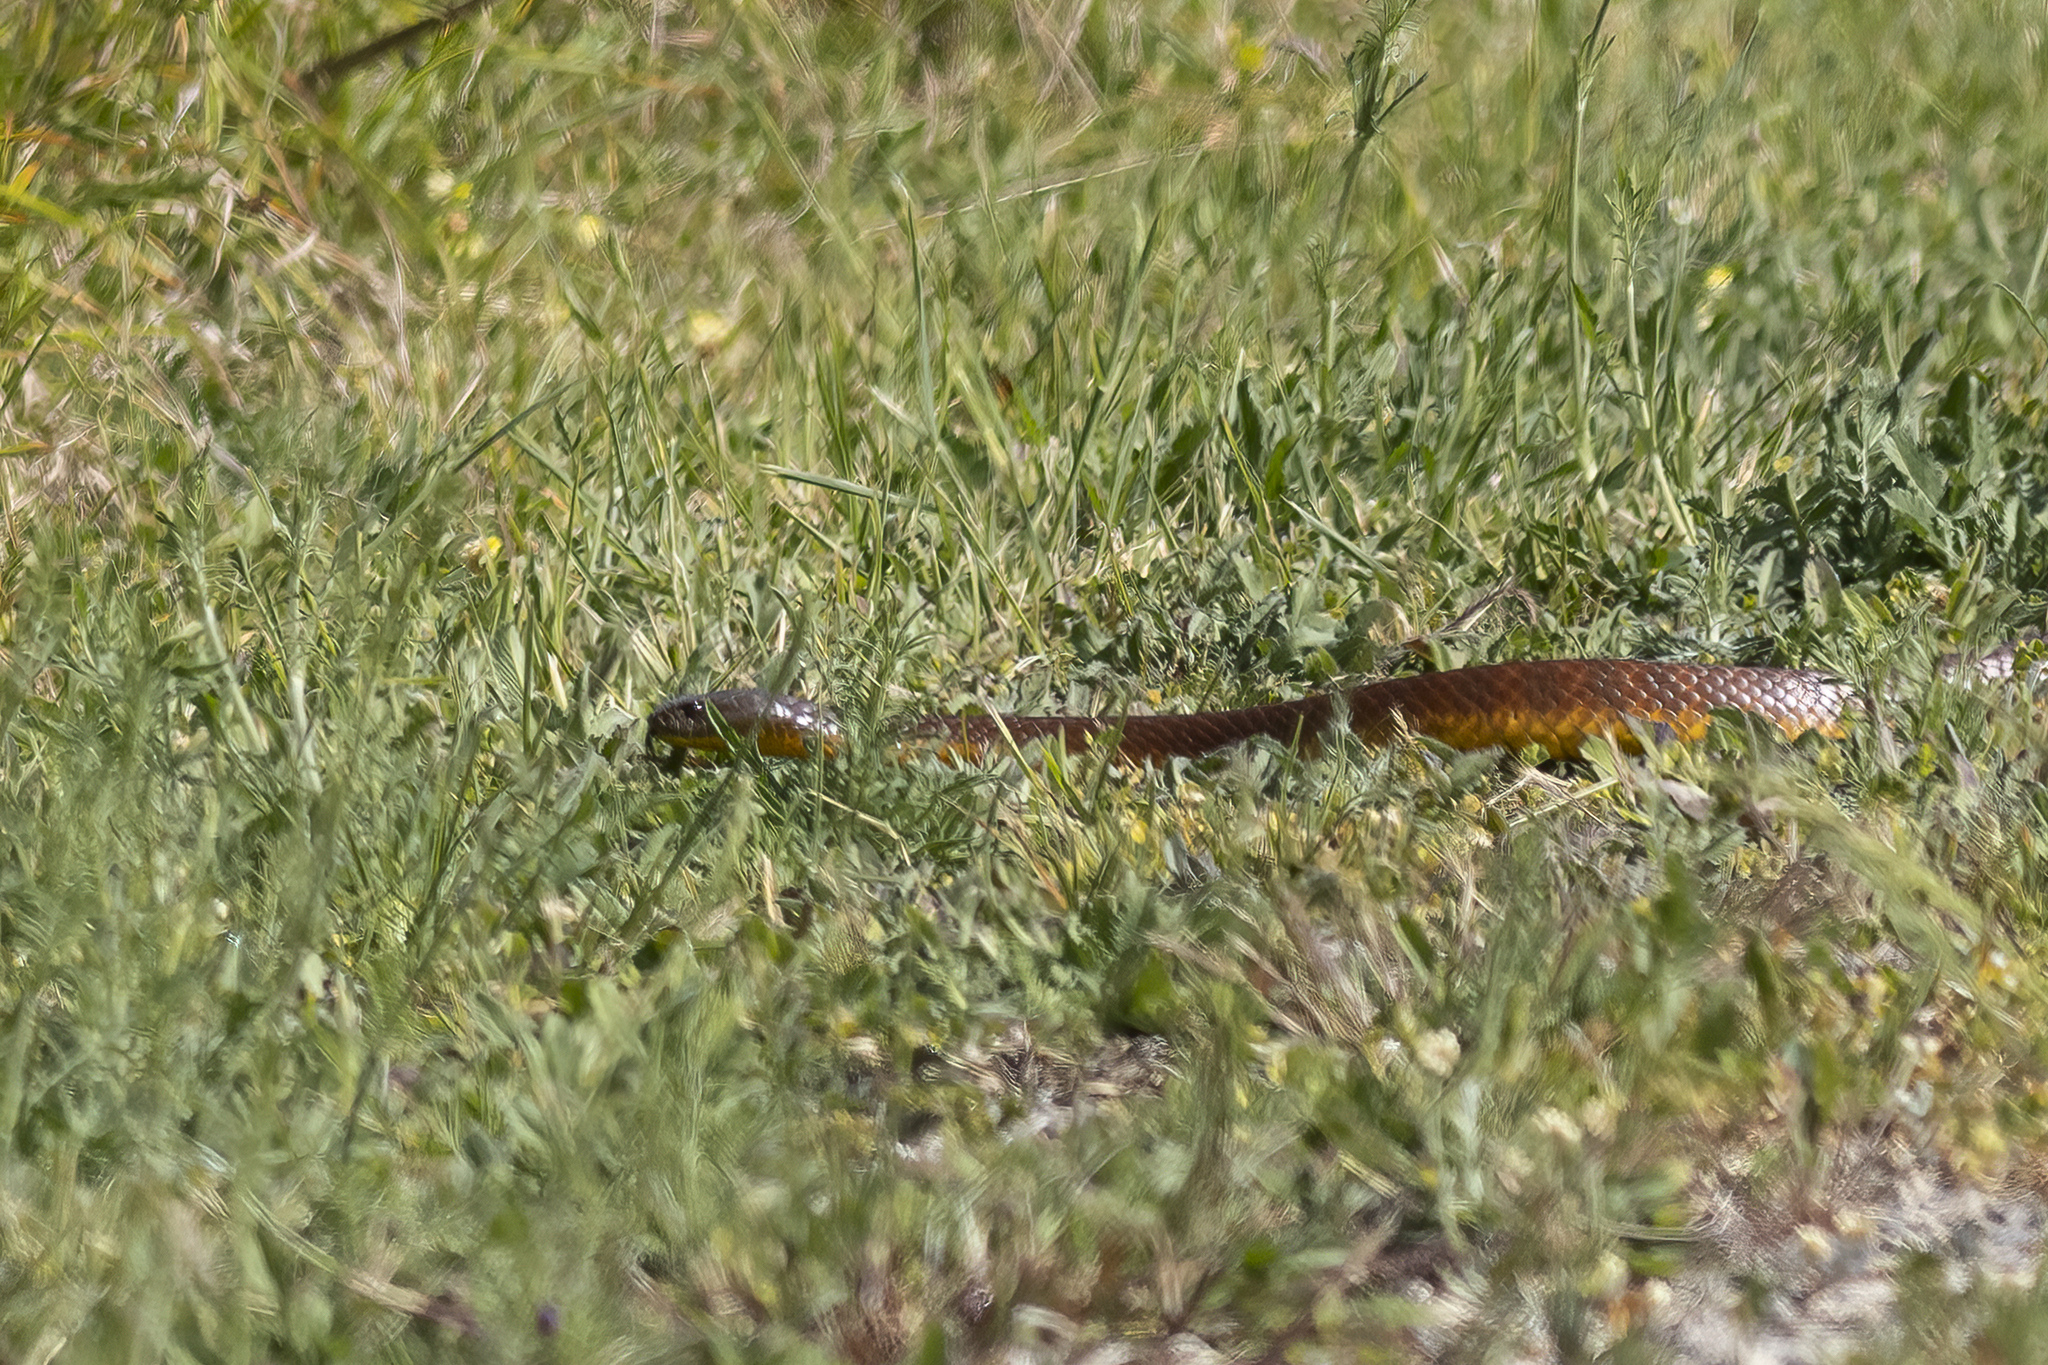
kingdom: Animalia
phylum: Chordata
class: Squamata
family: Elapidae
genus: Notechis
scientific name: Notechis scutatus
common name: Mainland tiger snake
